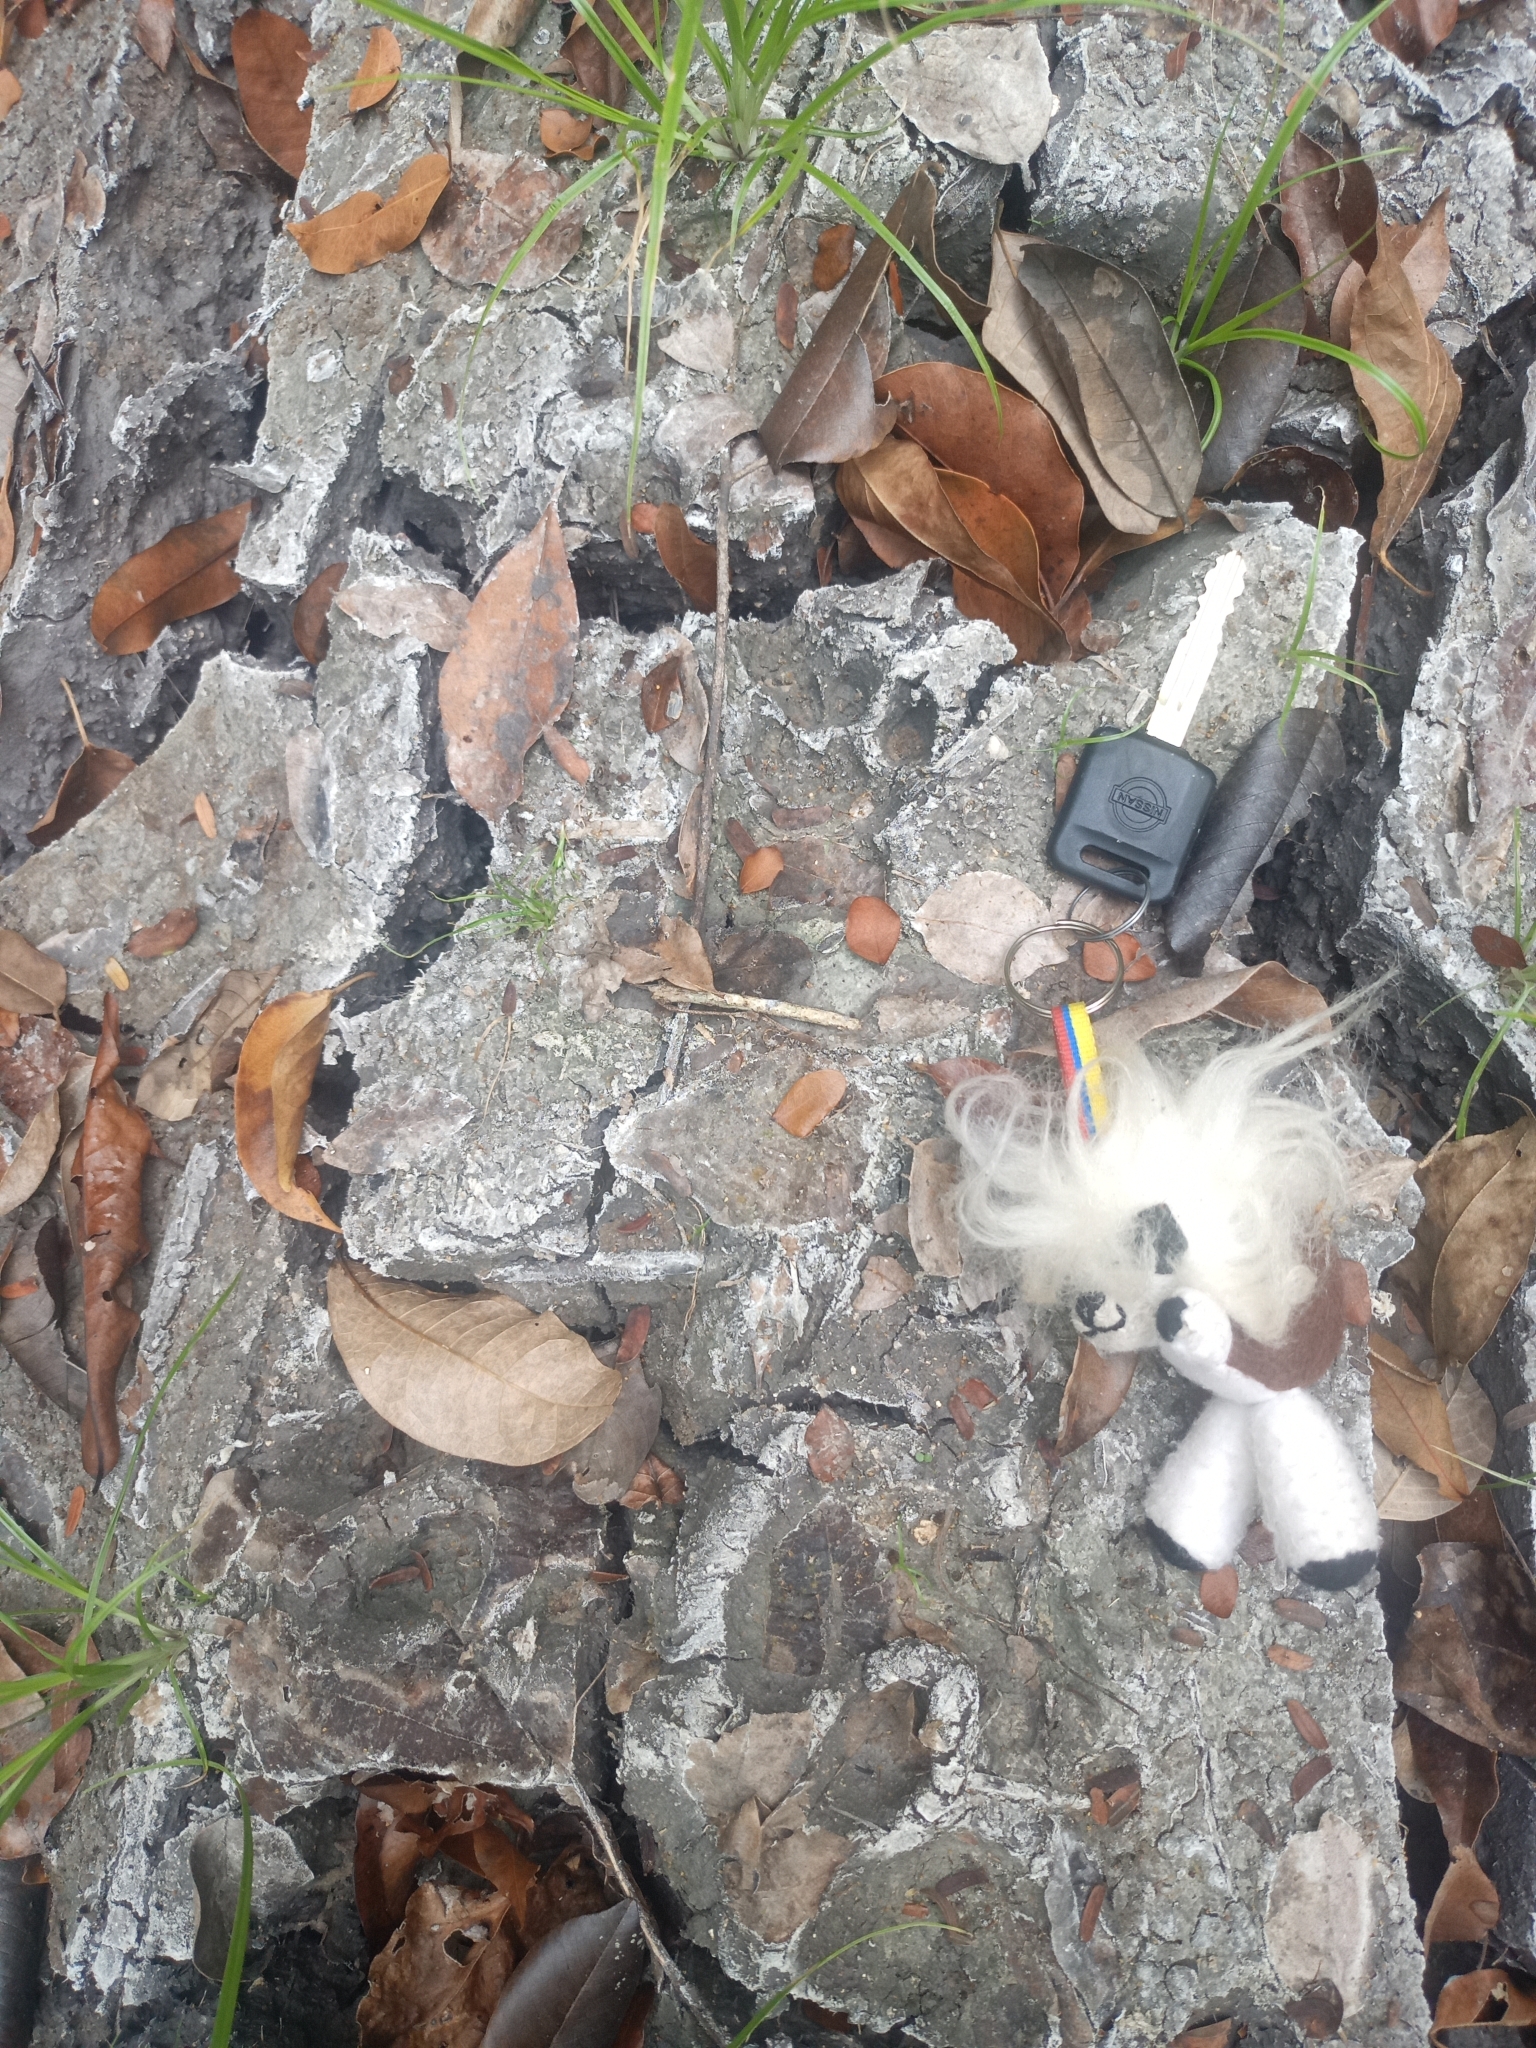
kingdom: Animalia
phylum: Chordata
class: Mammalia
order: Carnivora
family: Felidae
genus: Panthera
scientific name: Panthera onca
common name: Jaguar
